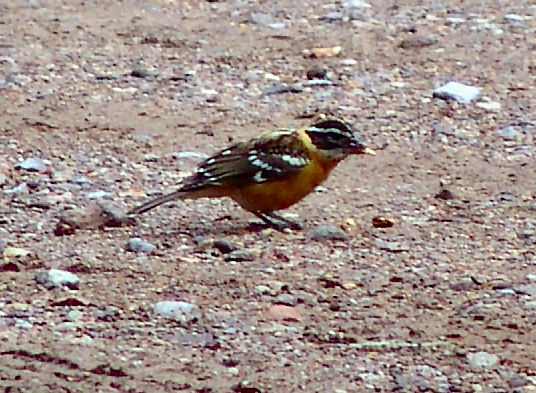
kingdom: Animalia
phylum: Chordata
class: Aves
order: Passeriformes
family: Cardinalidae
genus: Pheucticus
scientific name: Pheucticus melanocephalus
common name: Black-headed grosbeak
